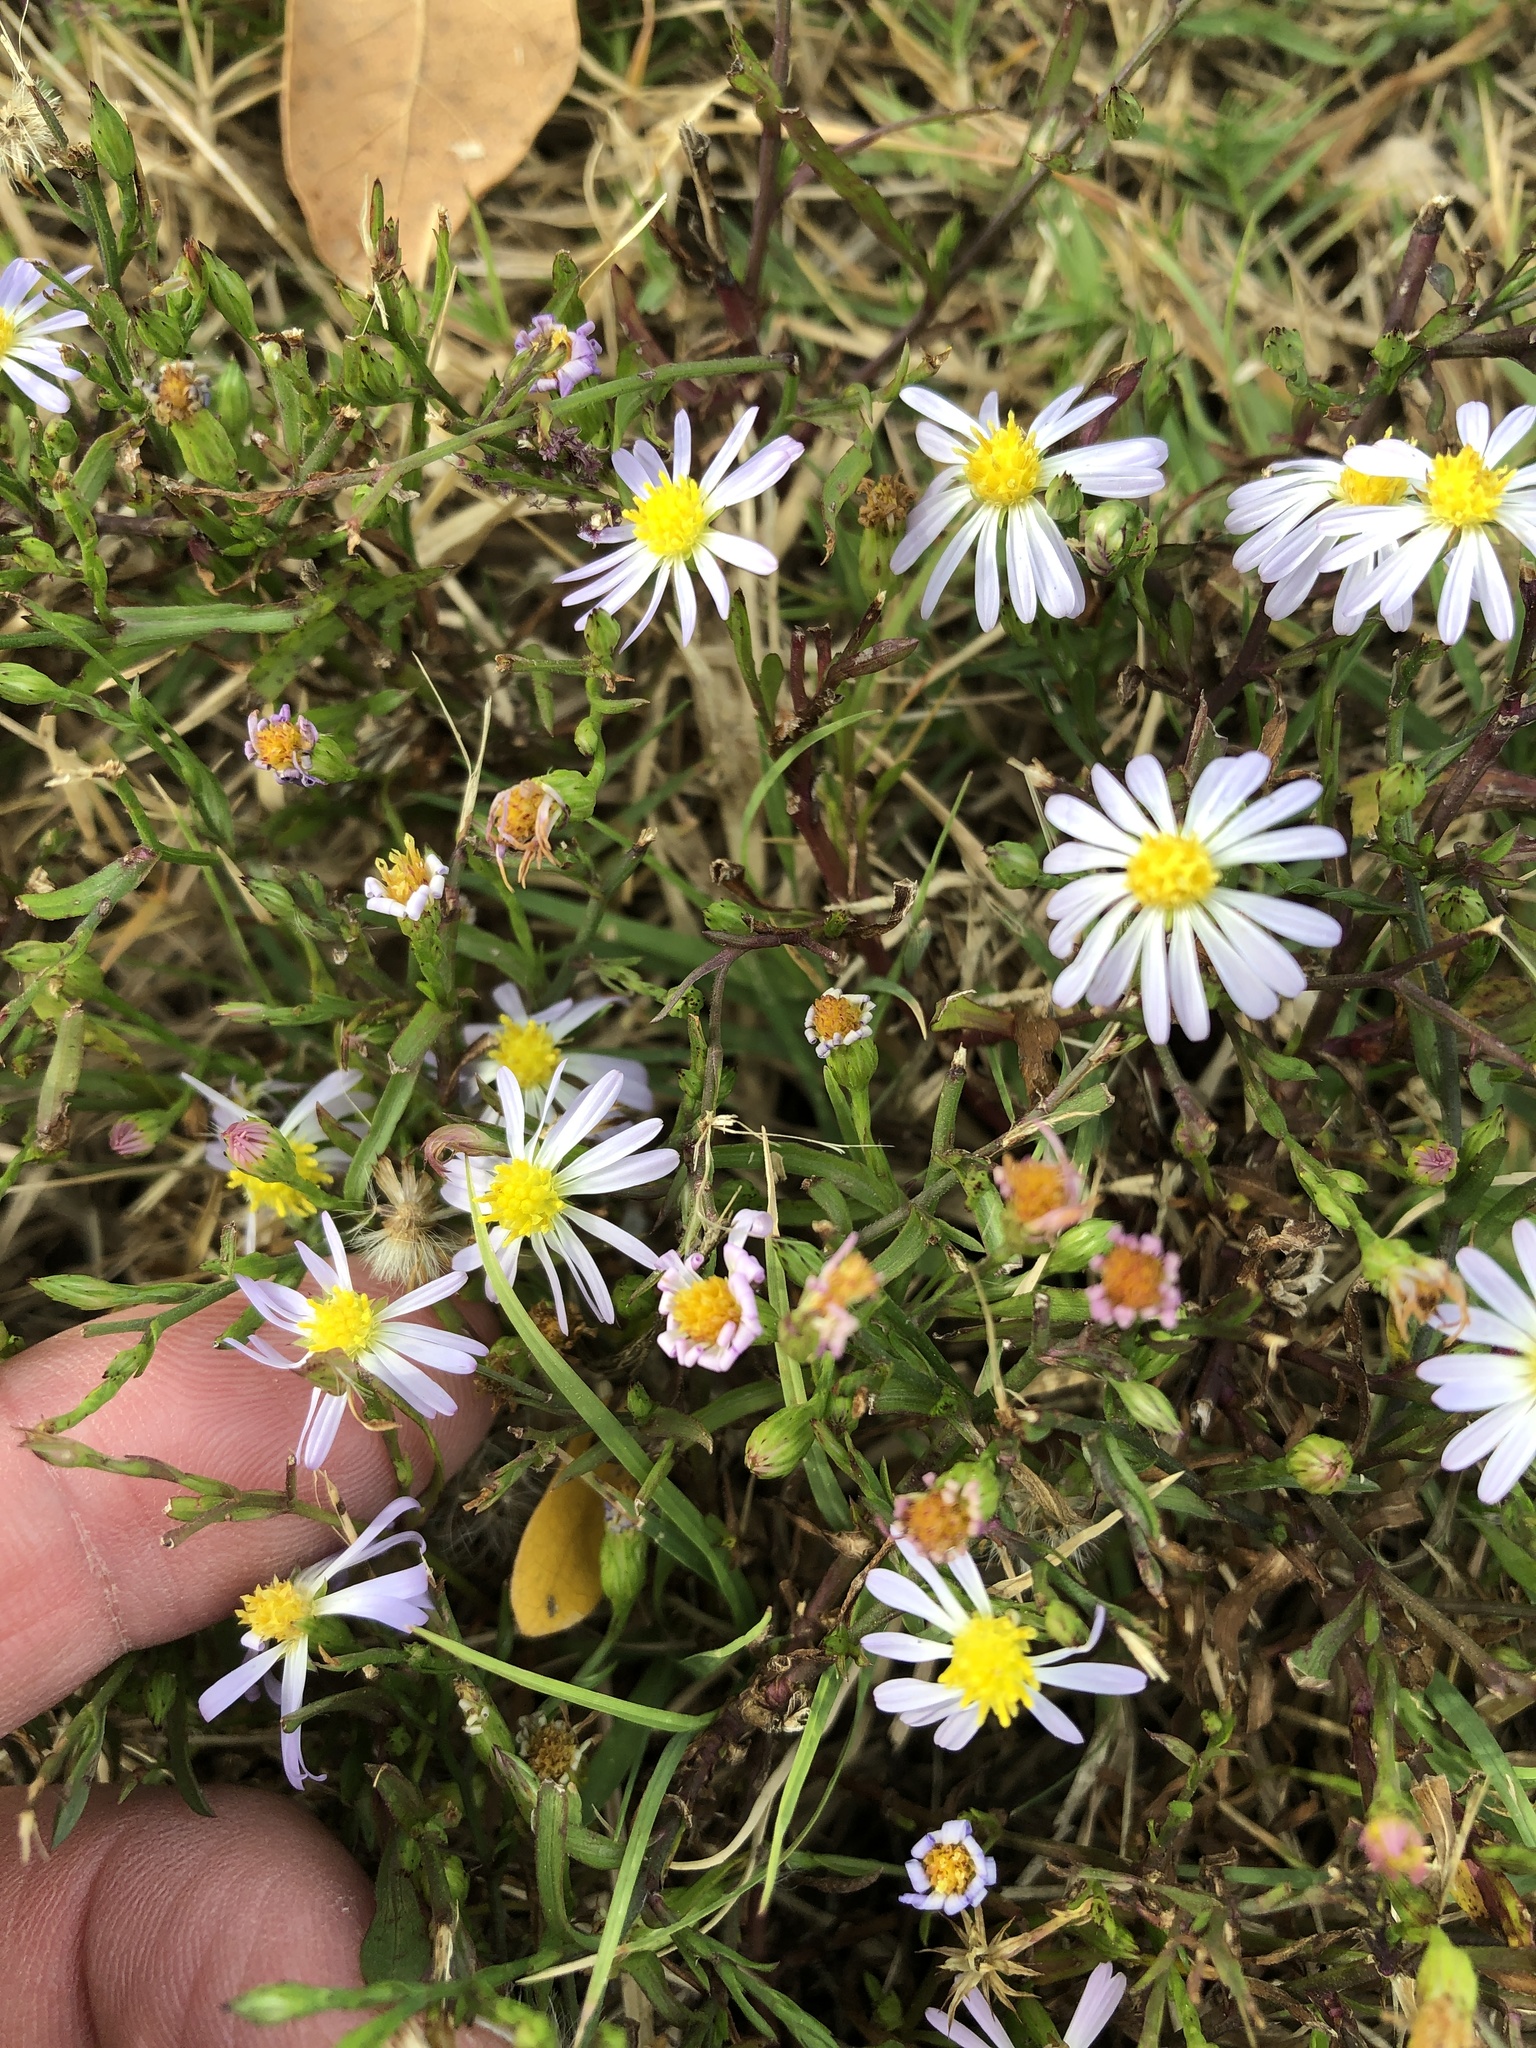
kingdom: Plantae
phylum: Tracheophyta
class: Magnoliopsida
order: Asterales
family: Asteraceae
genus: Symphyotrichum
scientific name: Symphyotrichum divaricatum
